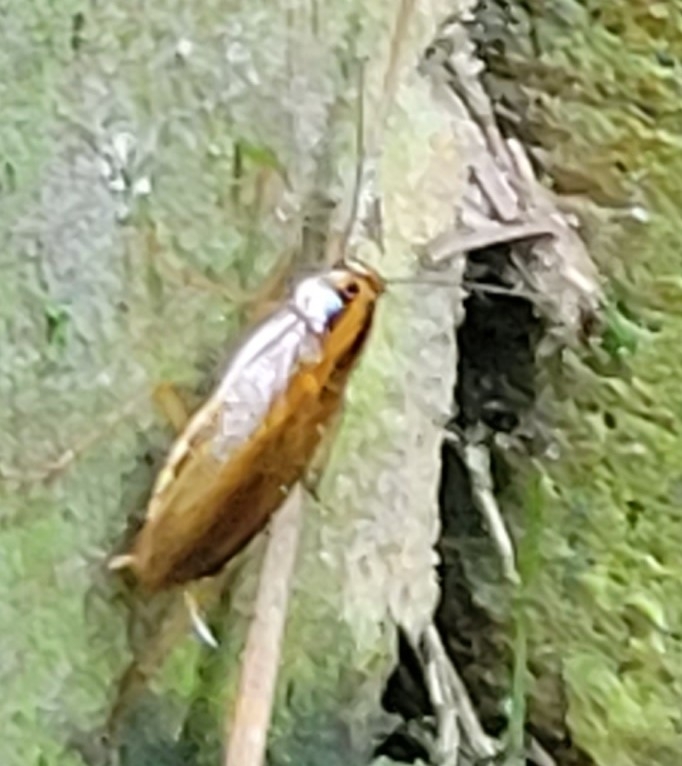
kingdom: Animalia
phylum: Arthropoda
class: Insecta
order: Blattodea
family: Ectobiidae
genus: Blattella
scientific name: Blattella germanica
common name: German cockroach
